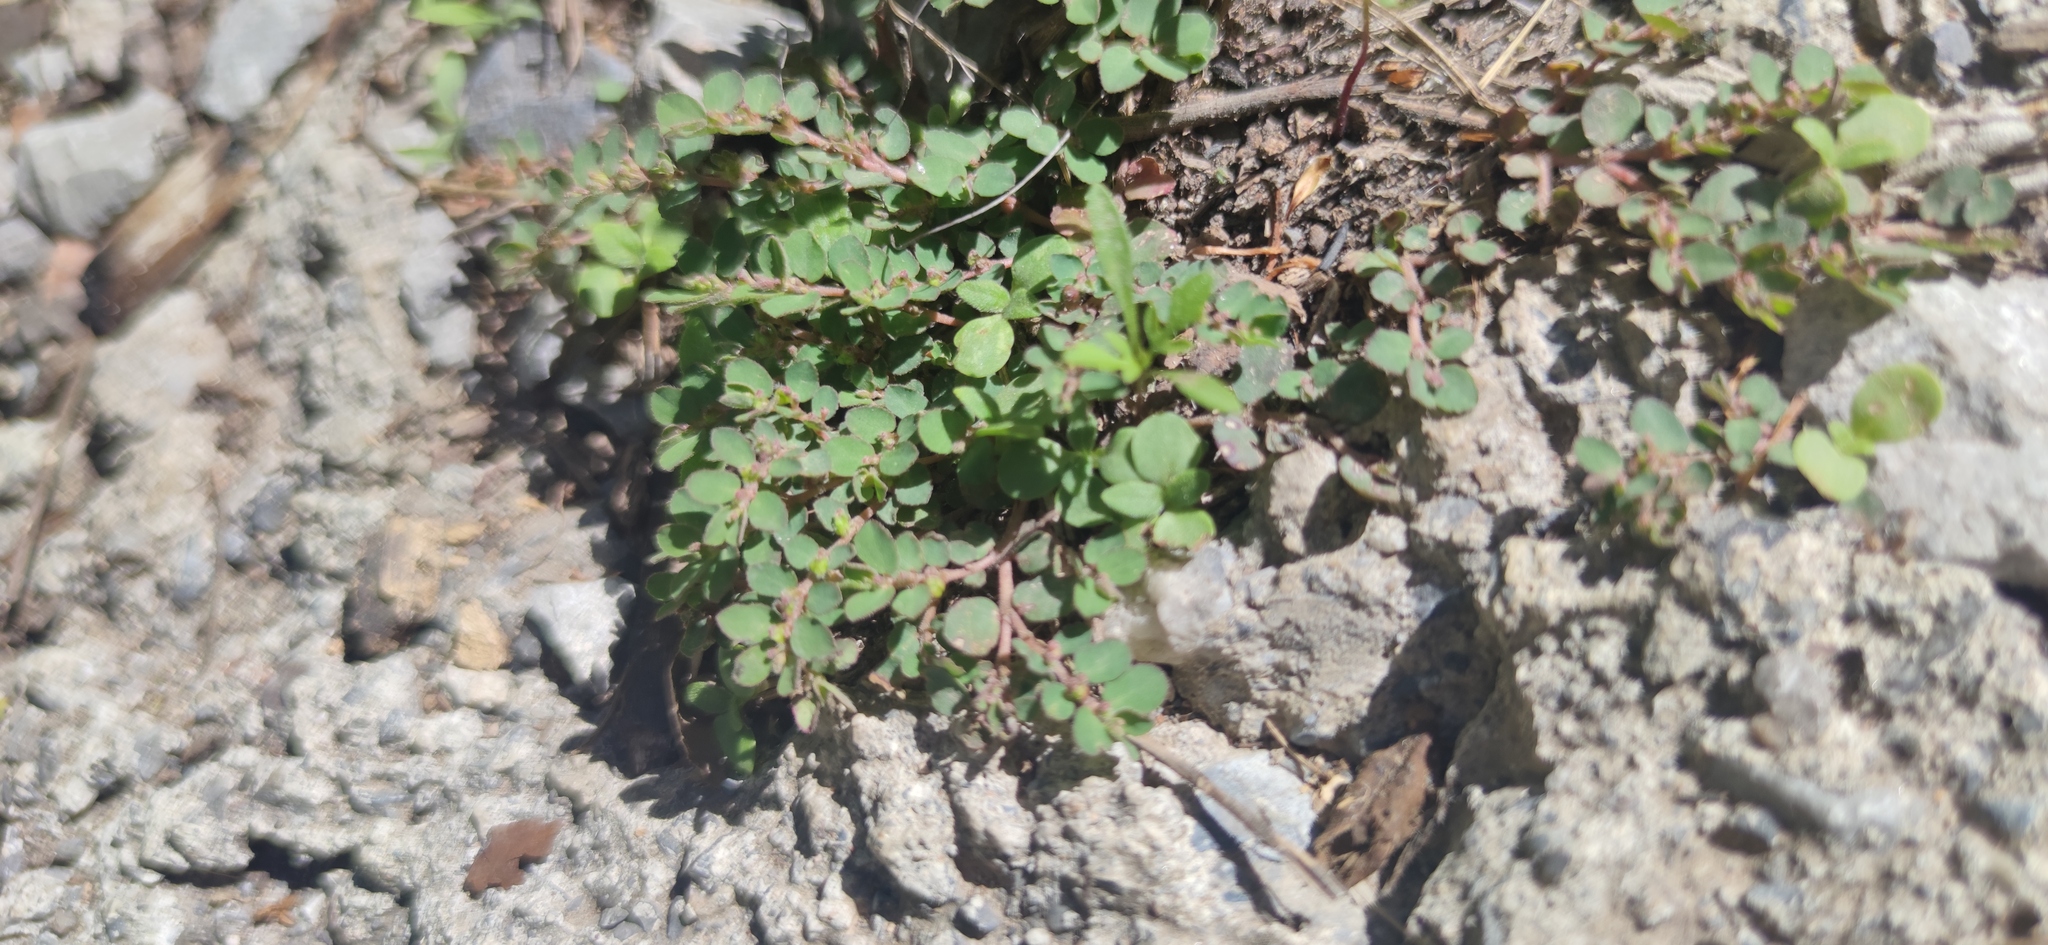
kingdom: Plantae
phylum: Tracheophyta
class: Magnoliopsida
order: Malpighiales
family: Euphorbiaceae
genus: Euphorbia
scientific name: Euphorbia prostrata
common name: Prostrate sandmat
